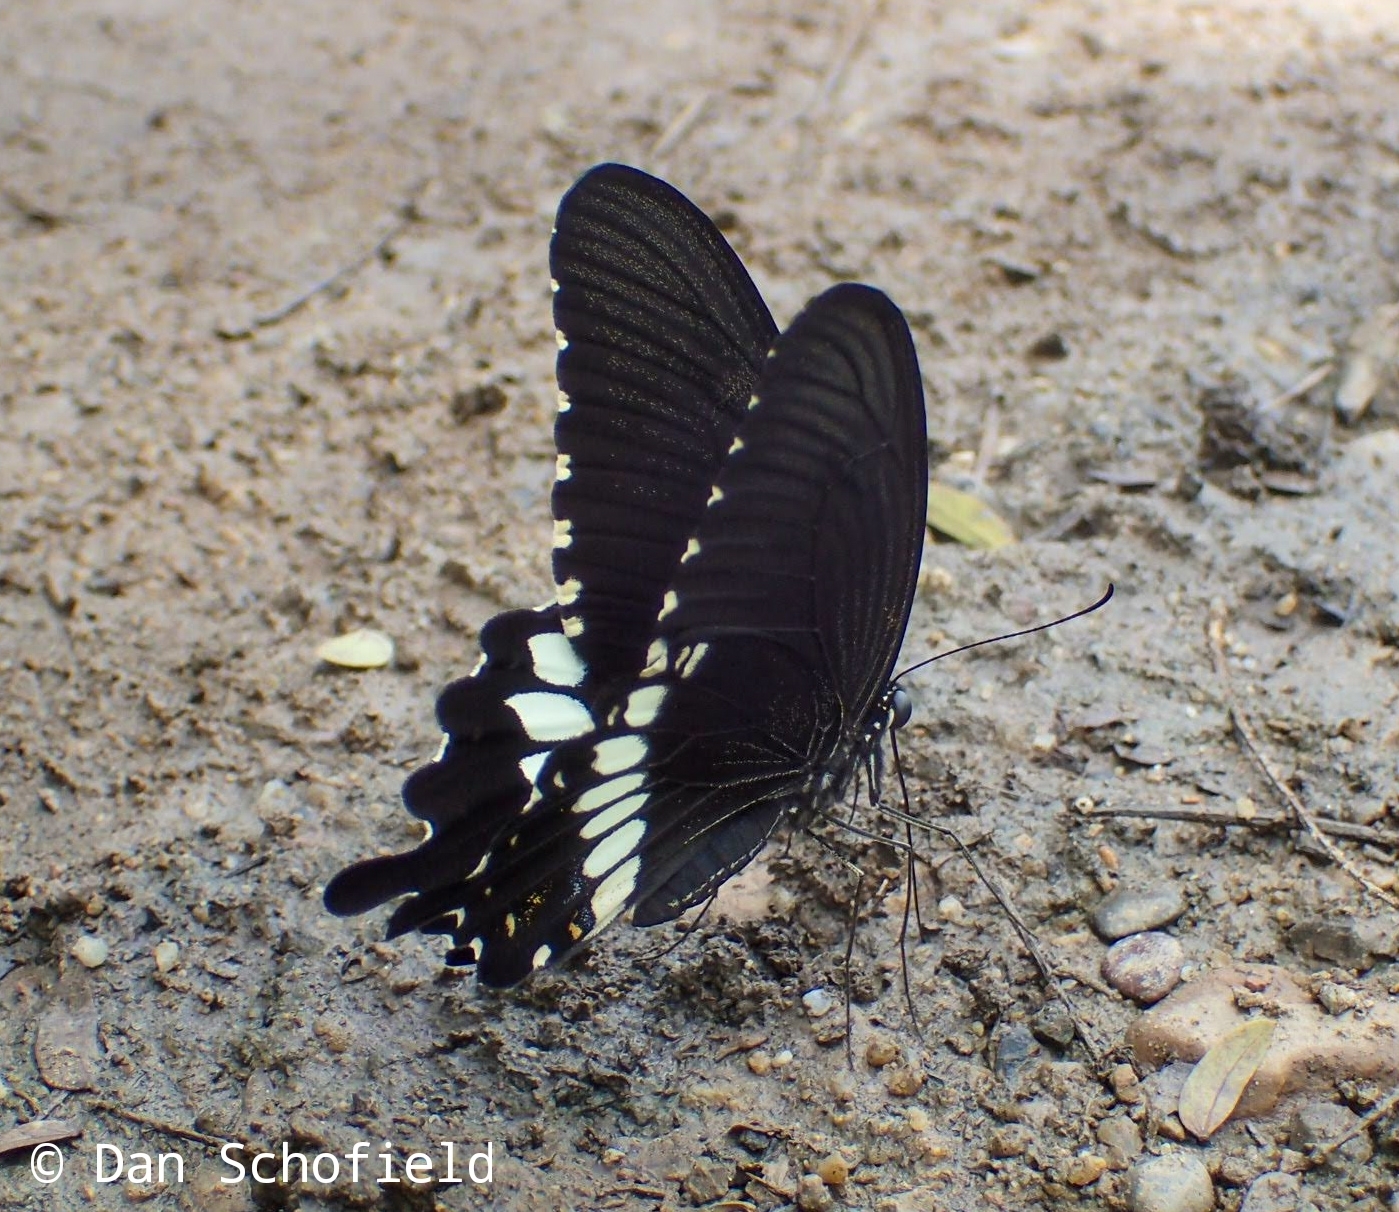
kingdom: Animalia
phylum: Arthropoda
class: Insecta
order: Lepidoptera
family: Papilionidae
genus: Papilio
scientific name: Papilio polytes
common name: Common mormon
